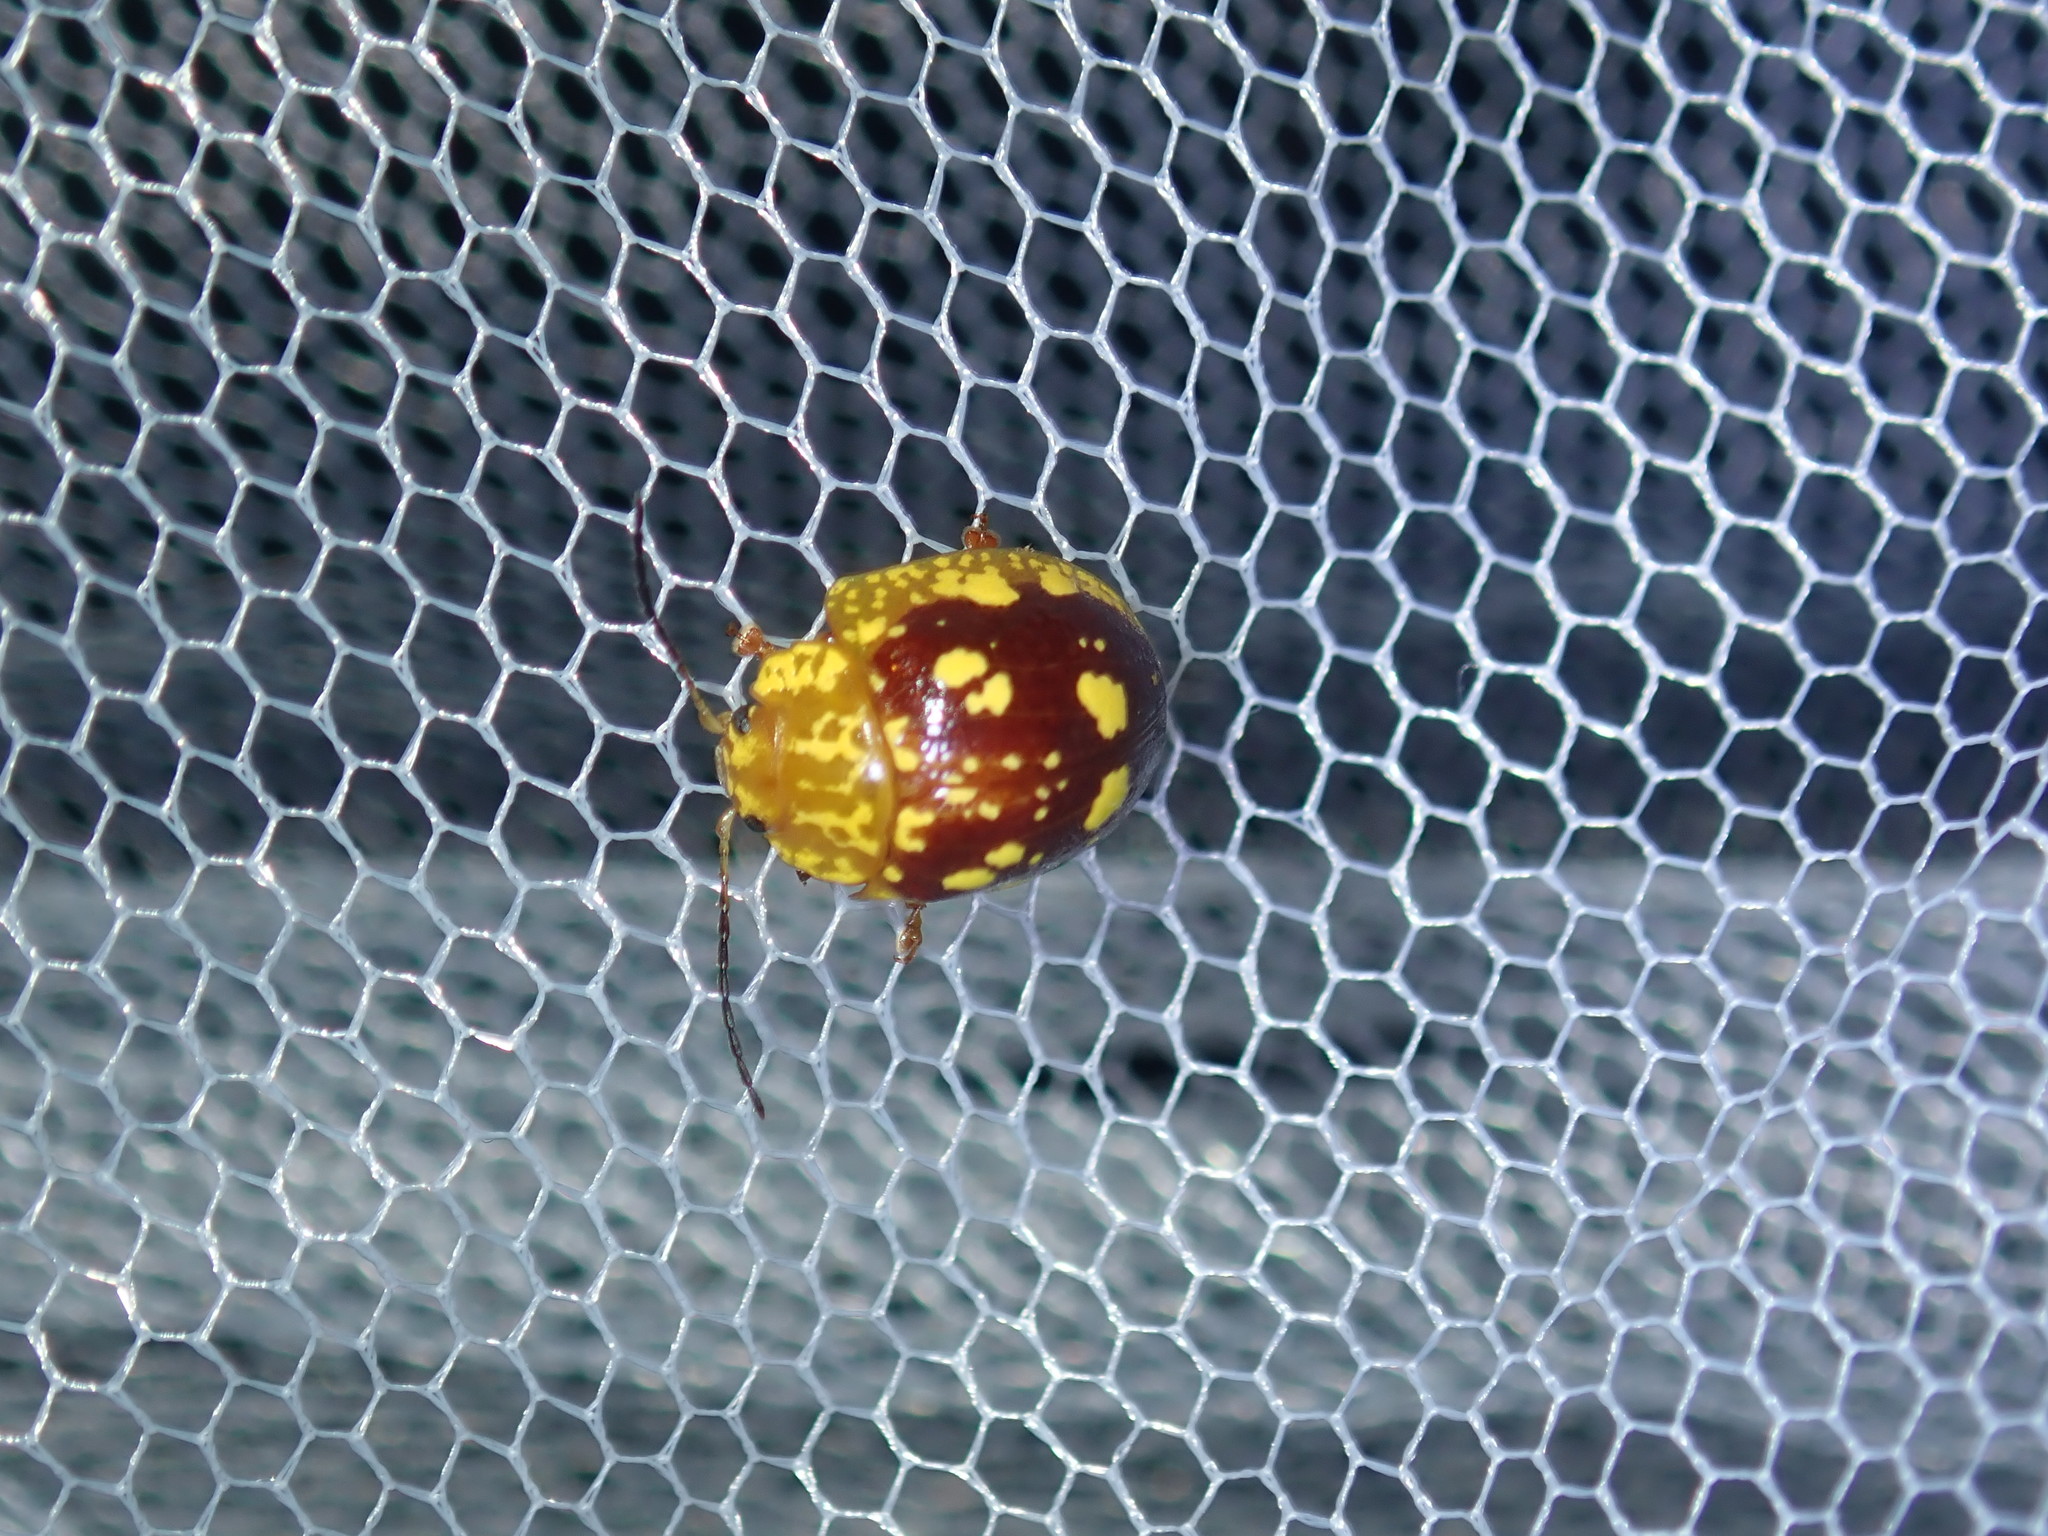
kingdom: Animalia
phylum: Arthropoda
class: Insecta
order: Coleoptera
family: Chrysomelidae
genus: Paropsis
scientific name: Paropsis maculata
